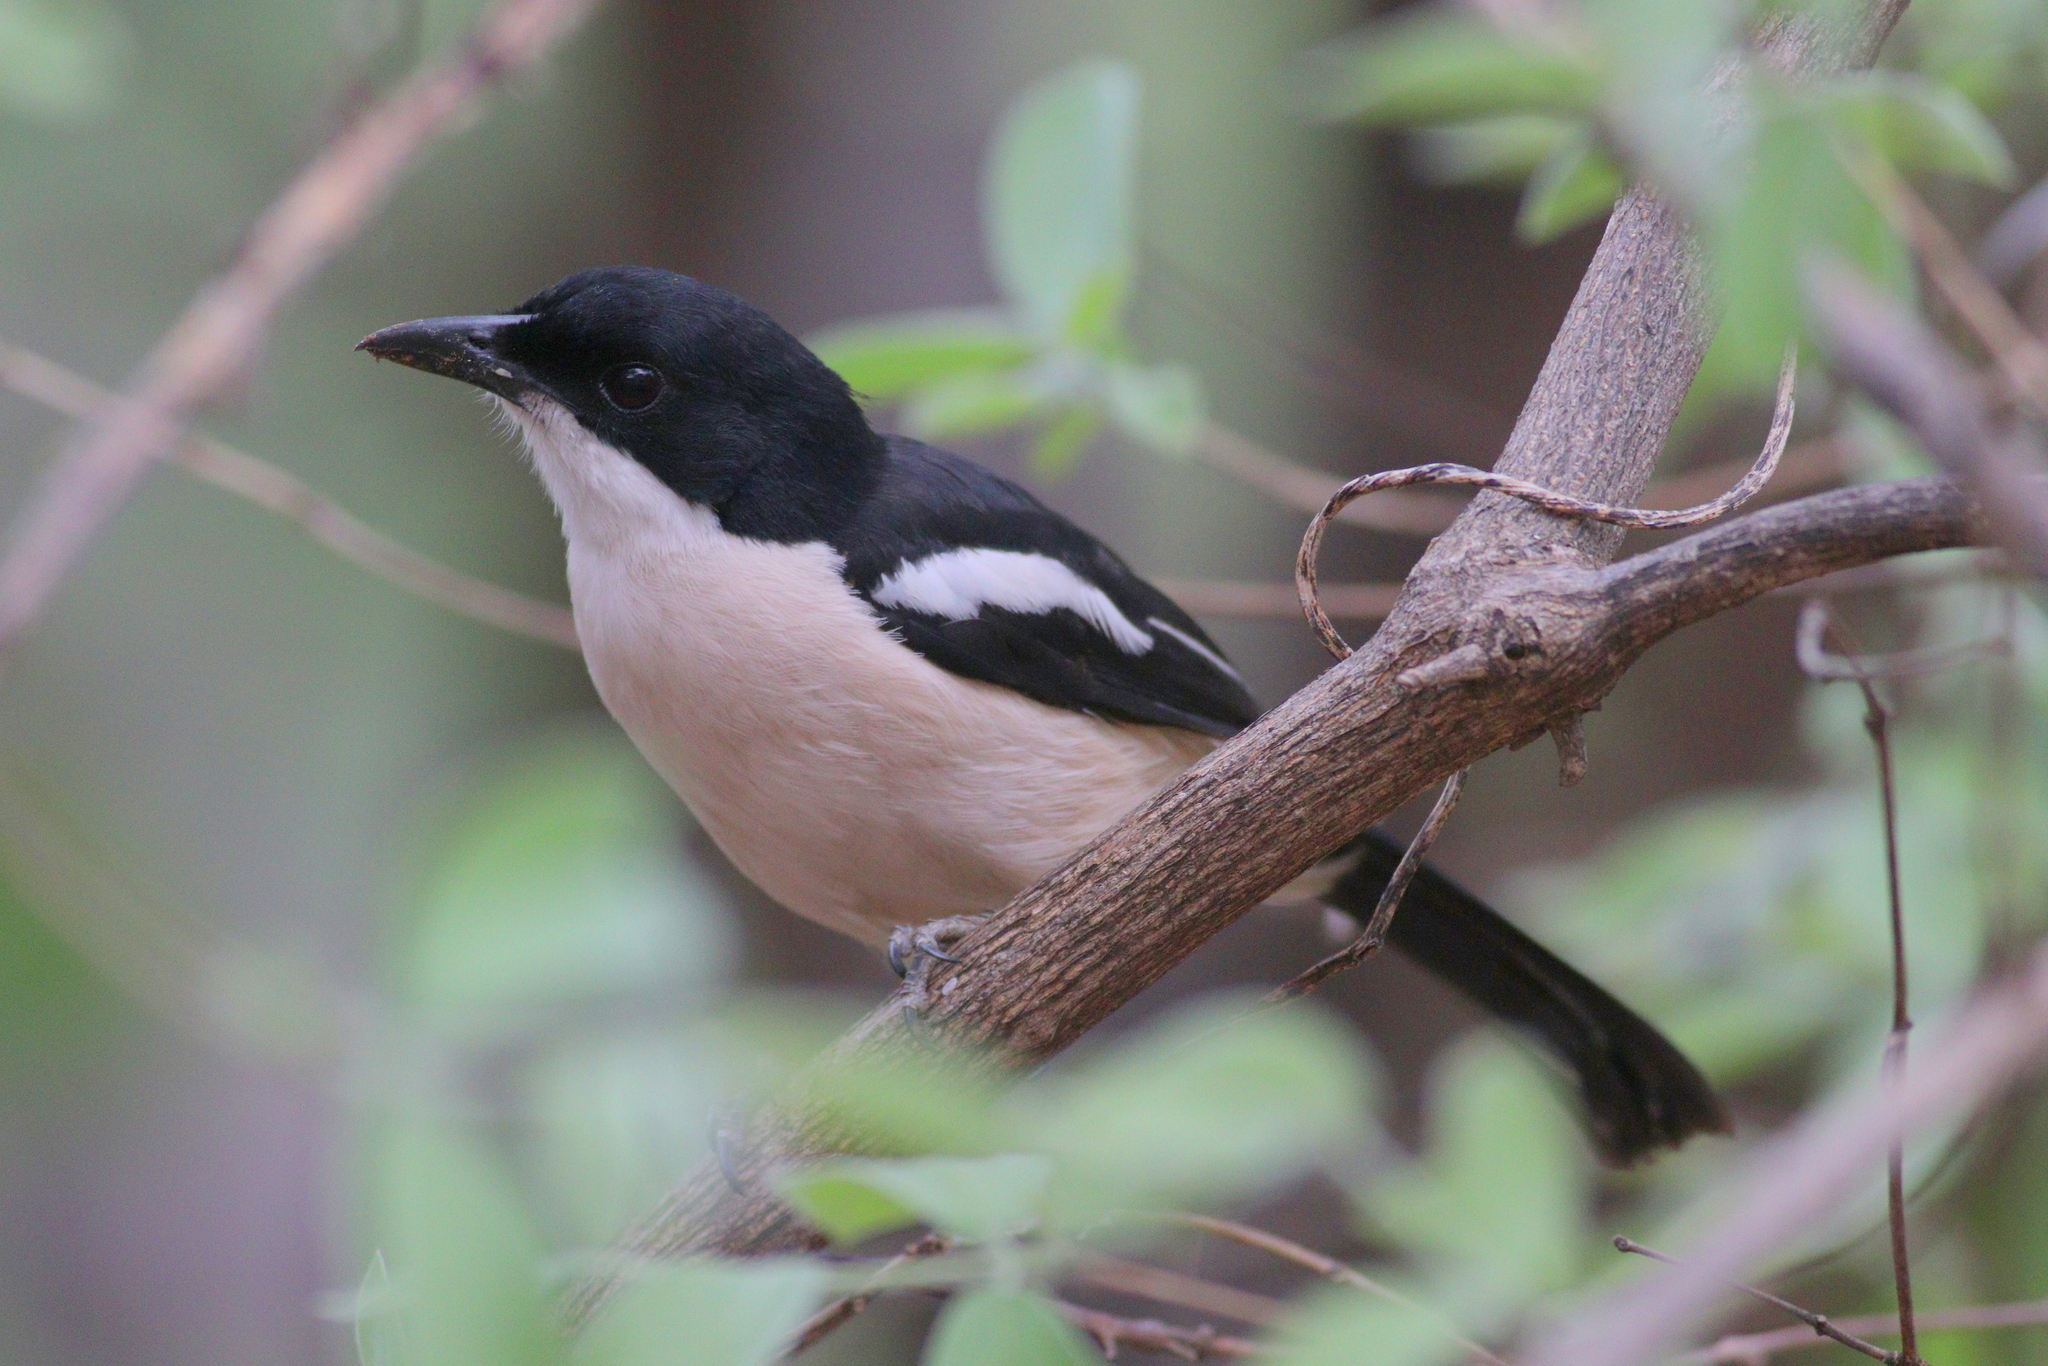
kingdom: Animalia
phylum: Chordata
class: Aves
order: Passeriformes
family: Malaconotidae
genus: Laniarius
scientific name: Laniarius major
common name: Tropical boubou
